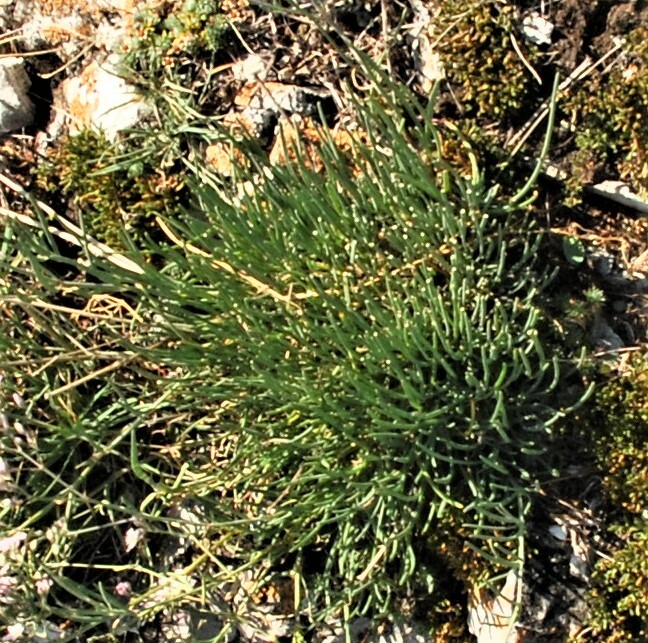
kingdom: Plantae
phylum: Tracheophyta
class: Magnoliopsida
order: Caryophyllales
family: Caryophyllaceae
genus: Gypsophila
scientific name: Gypsophila patrinii
